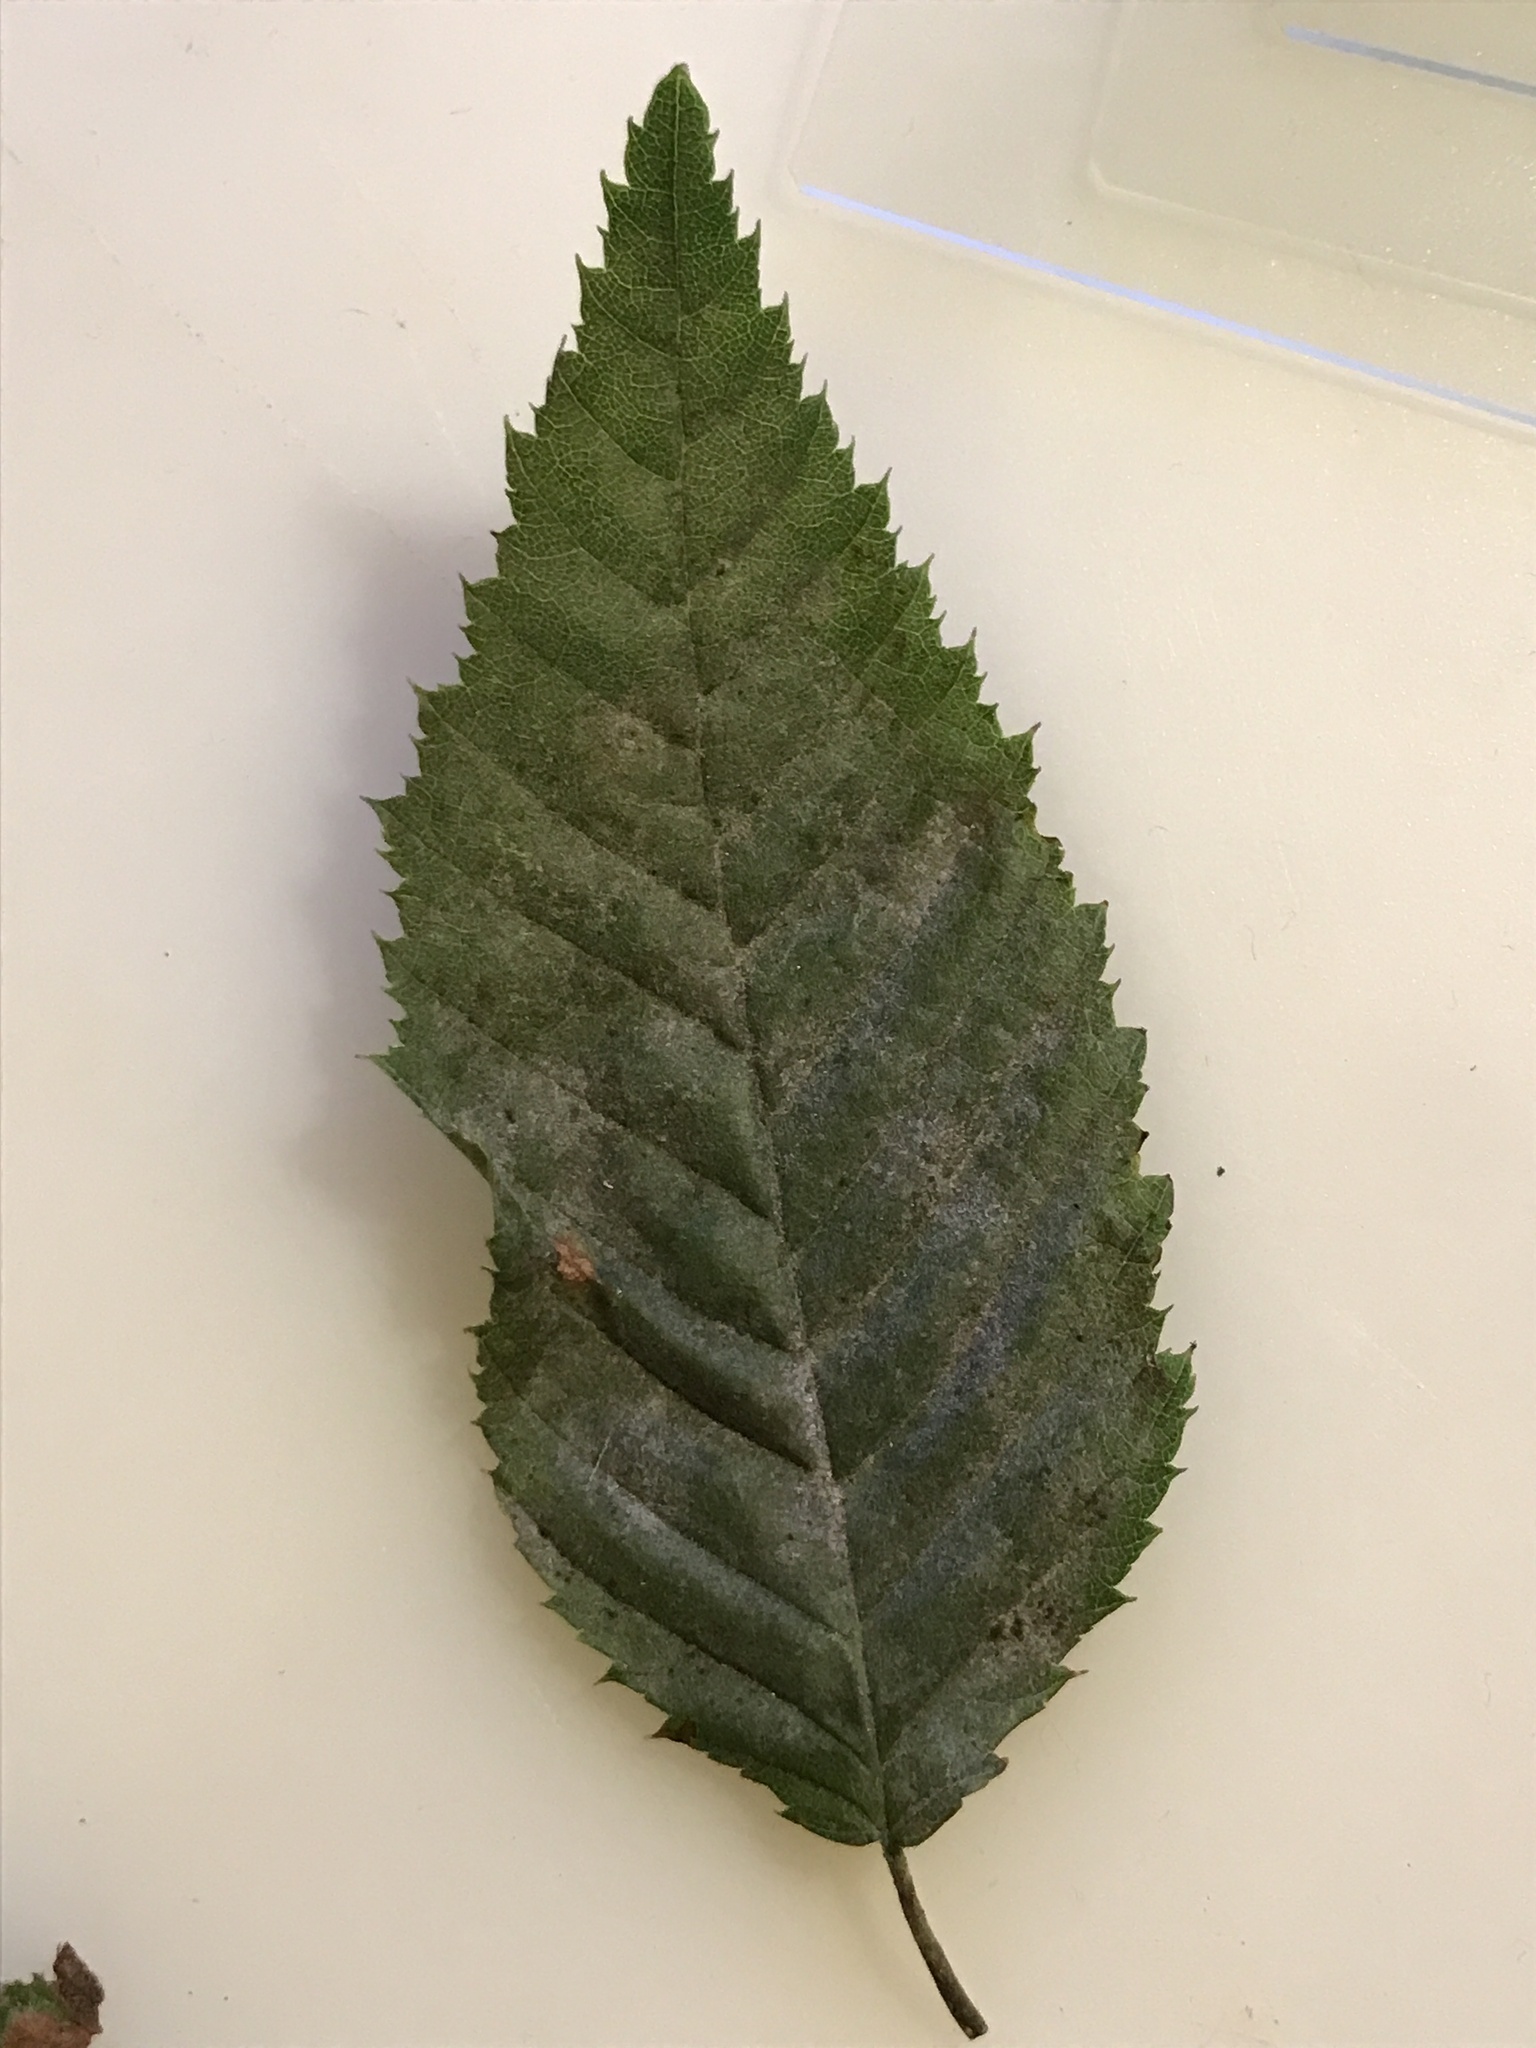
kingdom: Fungi
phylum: Ascomycota
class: Leotiomycetes
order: Helotiales
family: Erysiphaceae
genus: Erysiphe
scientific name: Erysiphe arcuata
